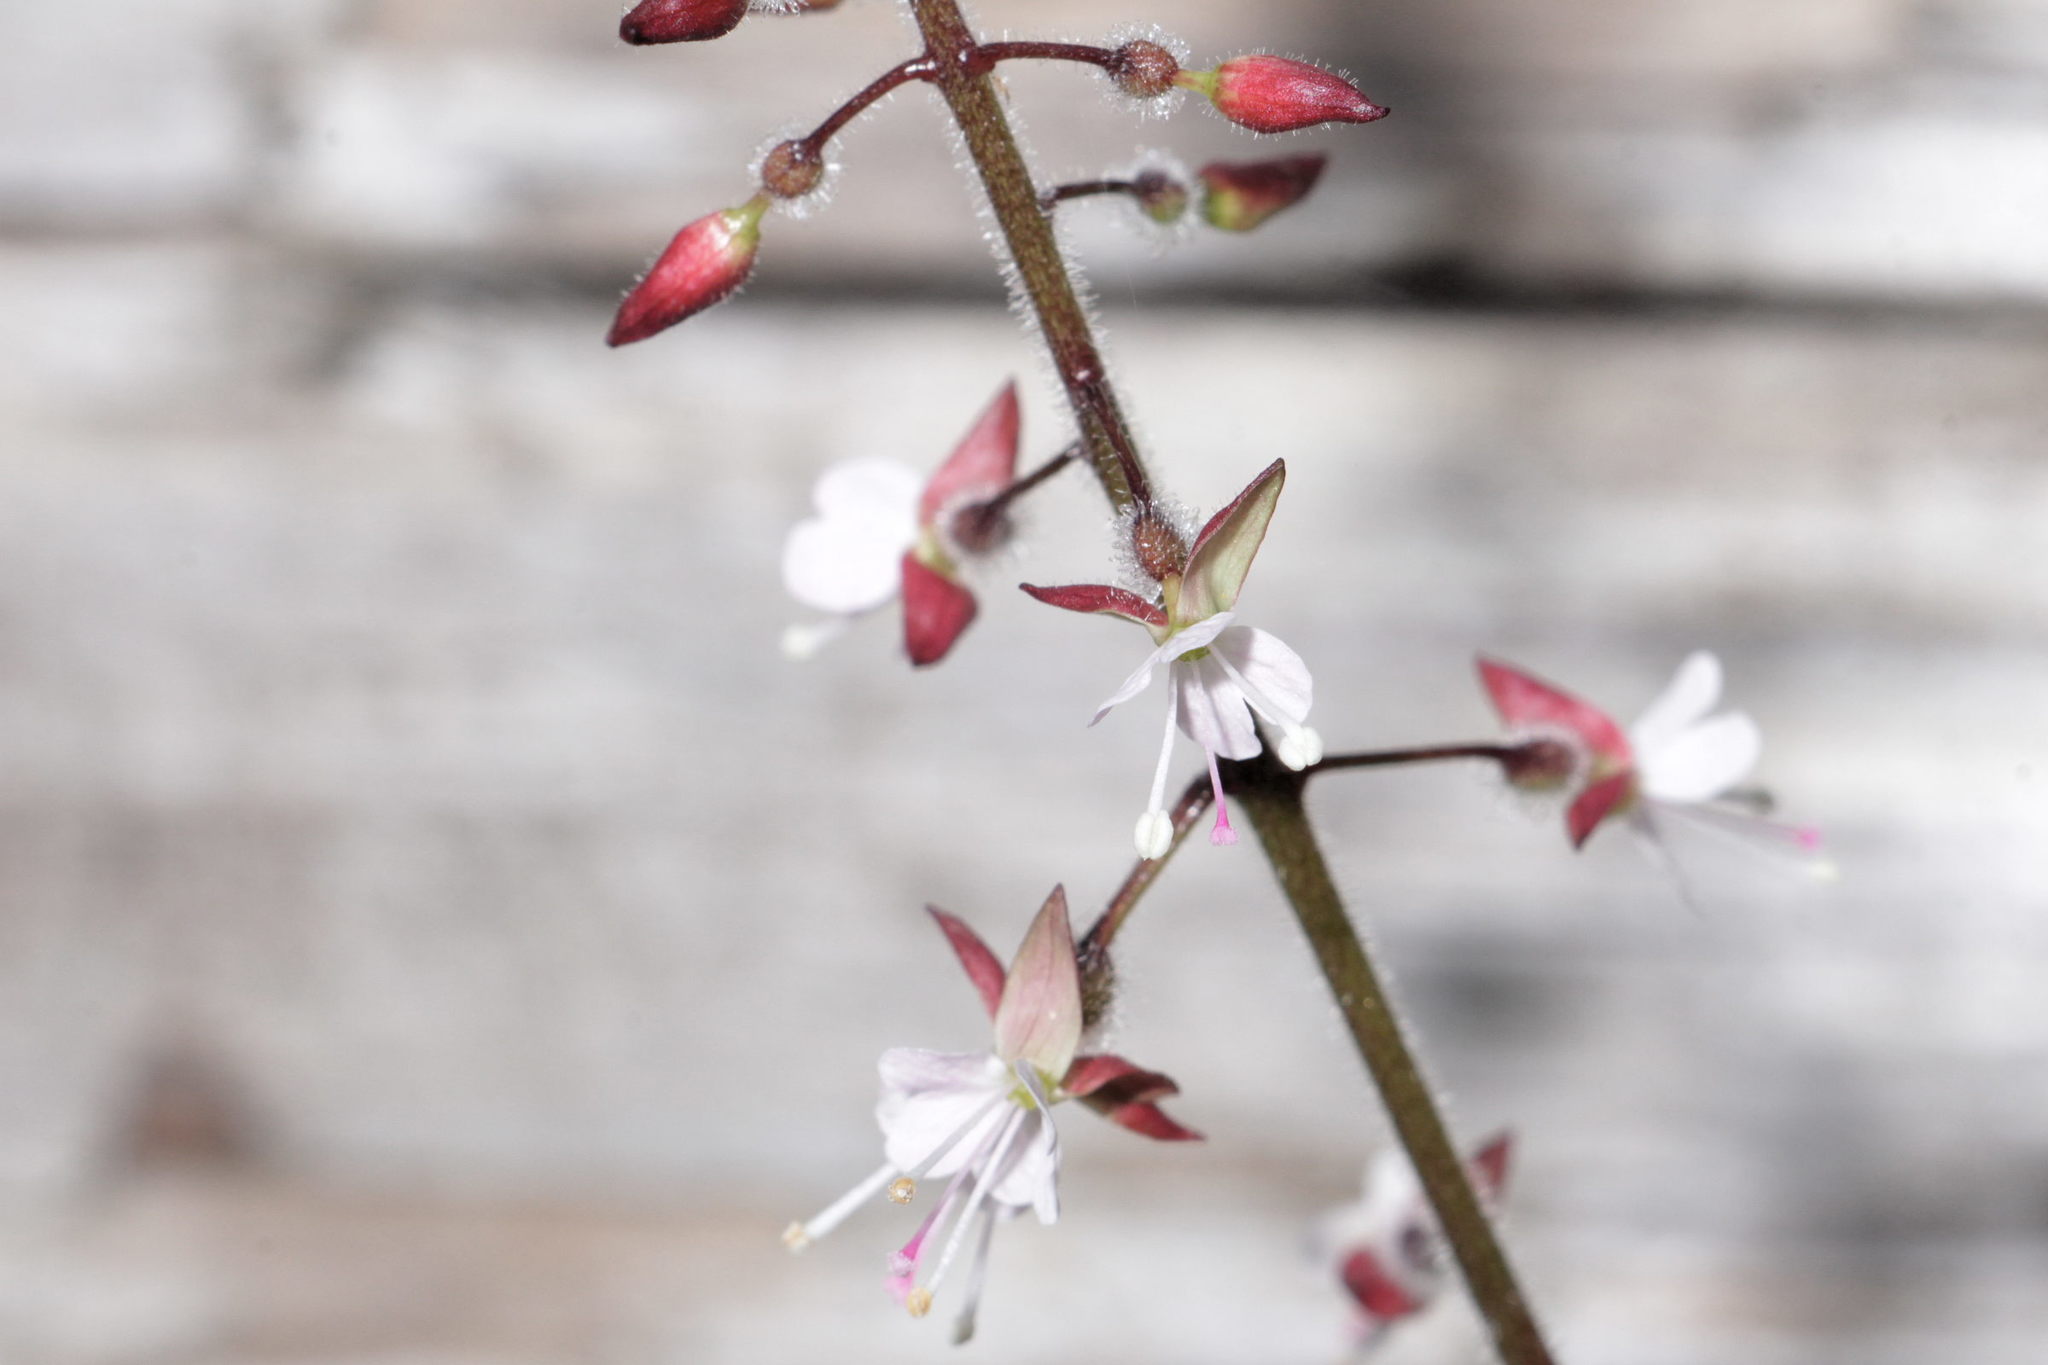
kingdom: Plantae
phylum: Tracheophyta
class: Magnoliopsida
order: Myrtales
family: Onagraceae
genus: Circaea
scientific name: Circaea lutetiana
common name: Enchanter's-nightshade
